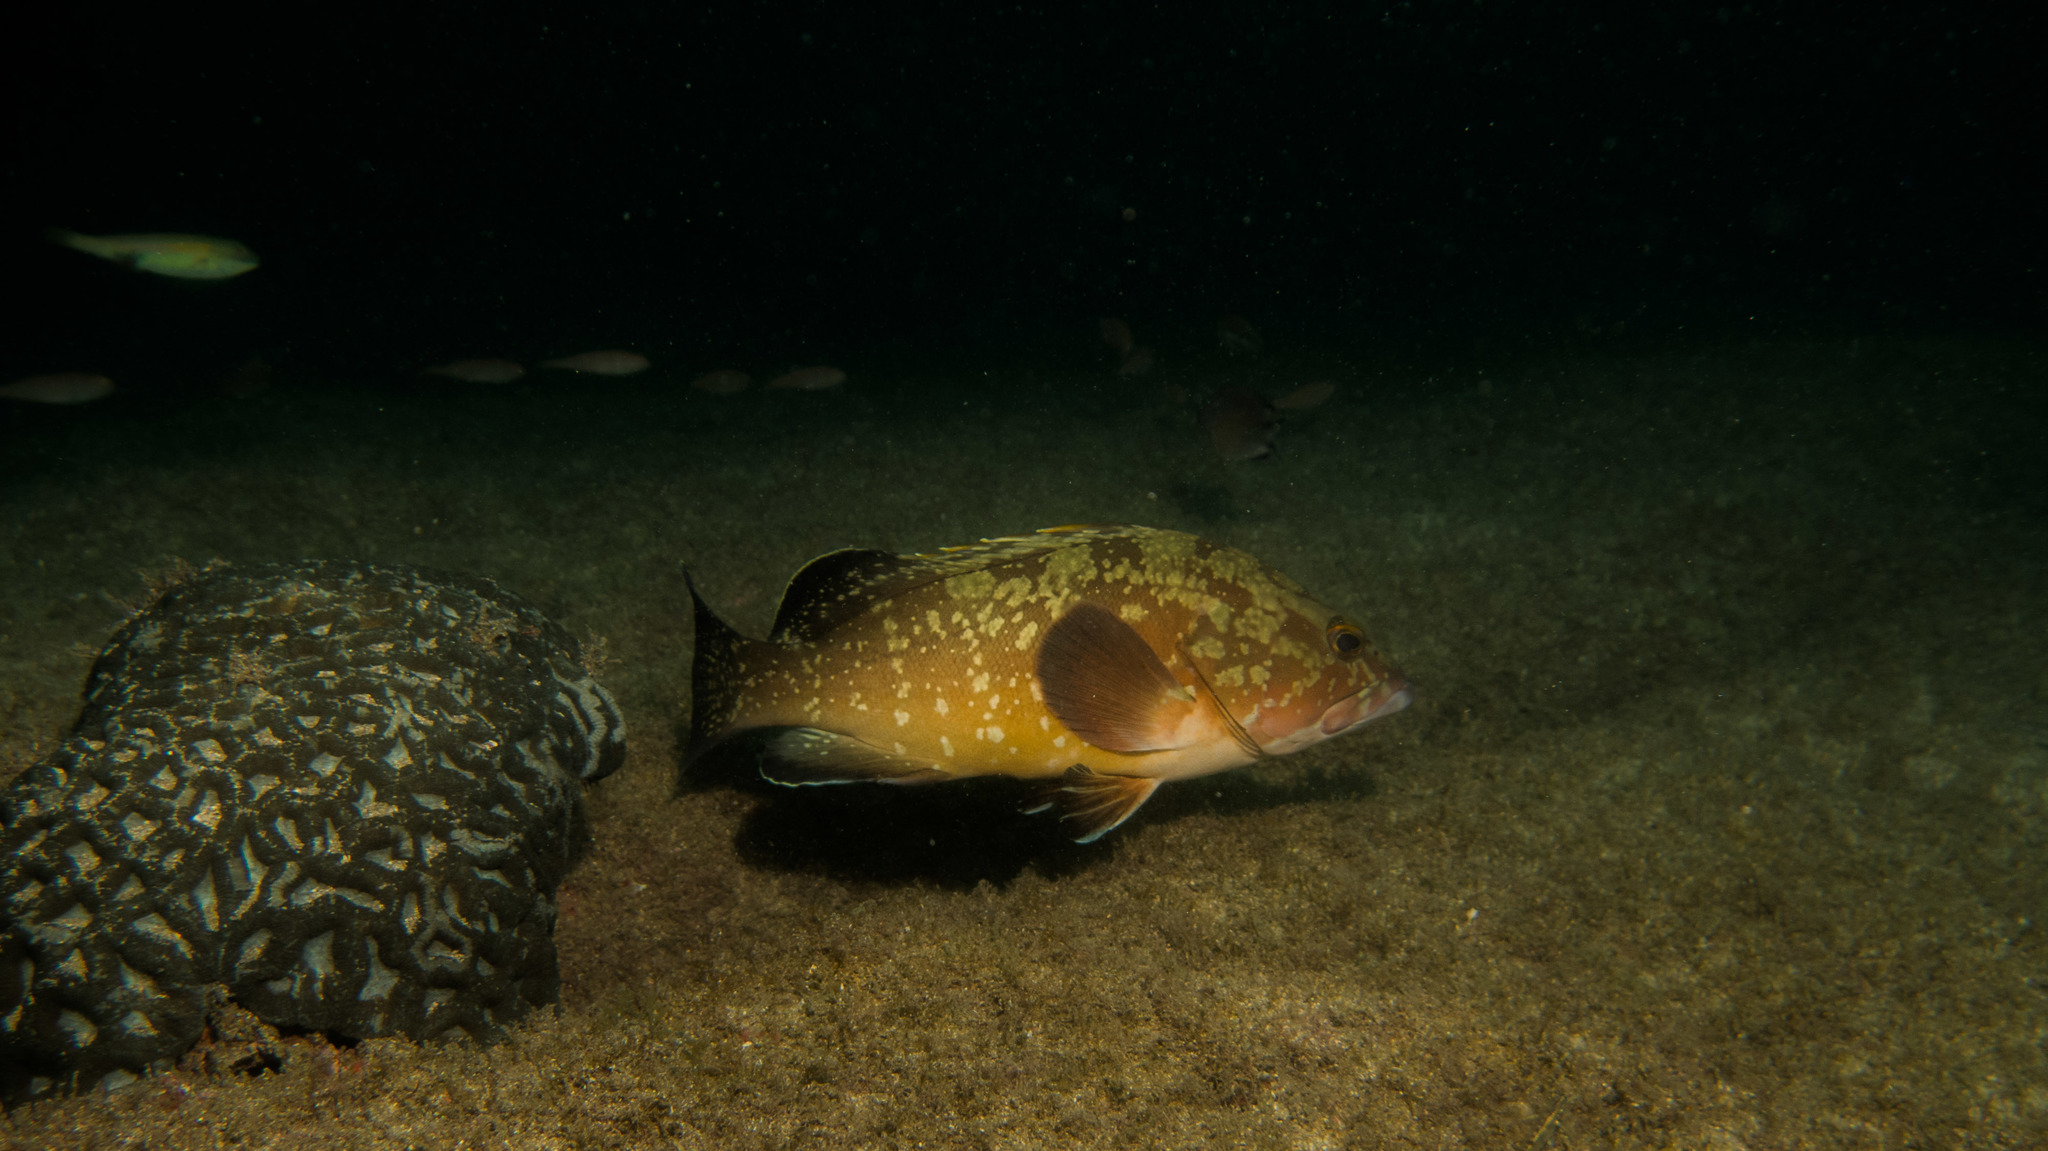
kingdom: Animalia
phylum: Chordata
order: Perciformes
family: Serranidae
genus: Epinephelus
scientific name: Epinephelus marginatus
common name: Dusky grouper
